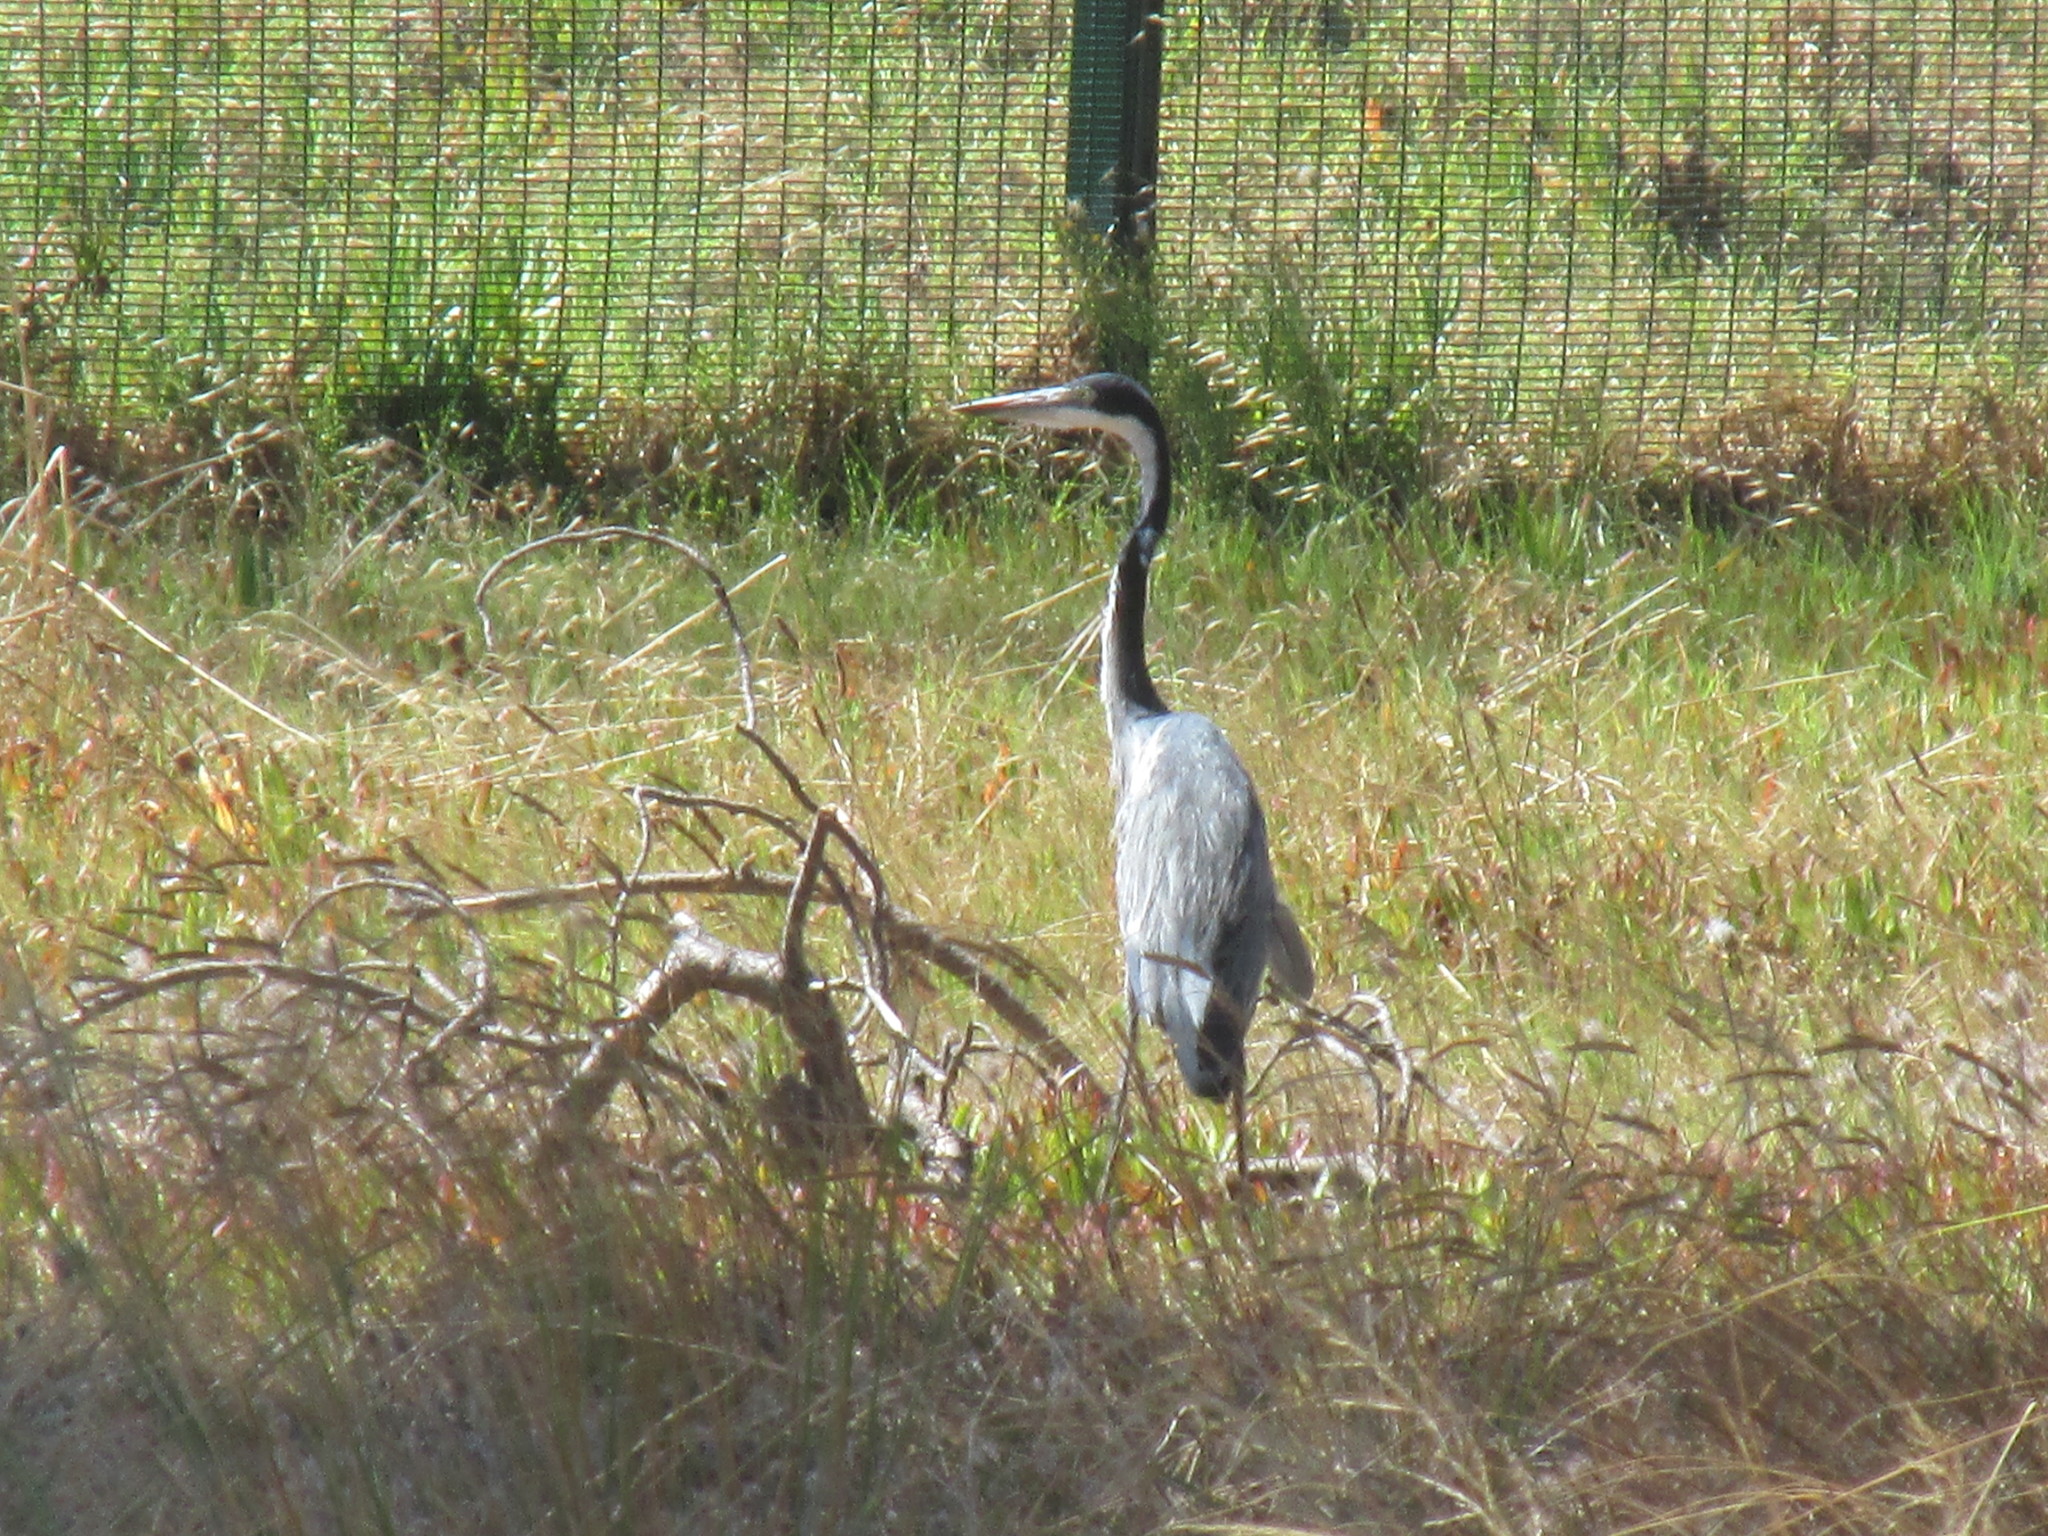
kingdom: Animalia
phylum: Chordata
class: Aves
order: Pelecaniformes
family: Ardeidae
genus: Ardea
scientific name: Ardea melanocephala
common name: Black-headed heron
